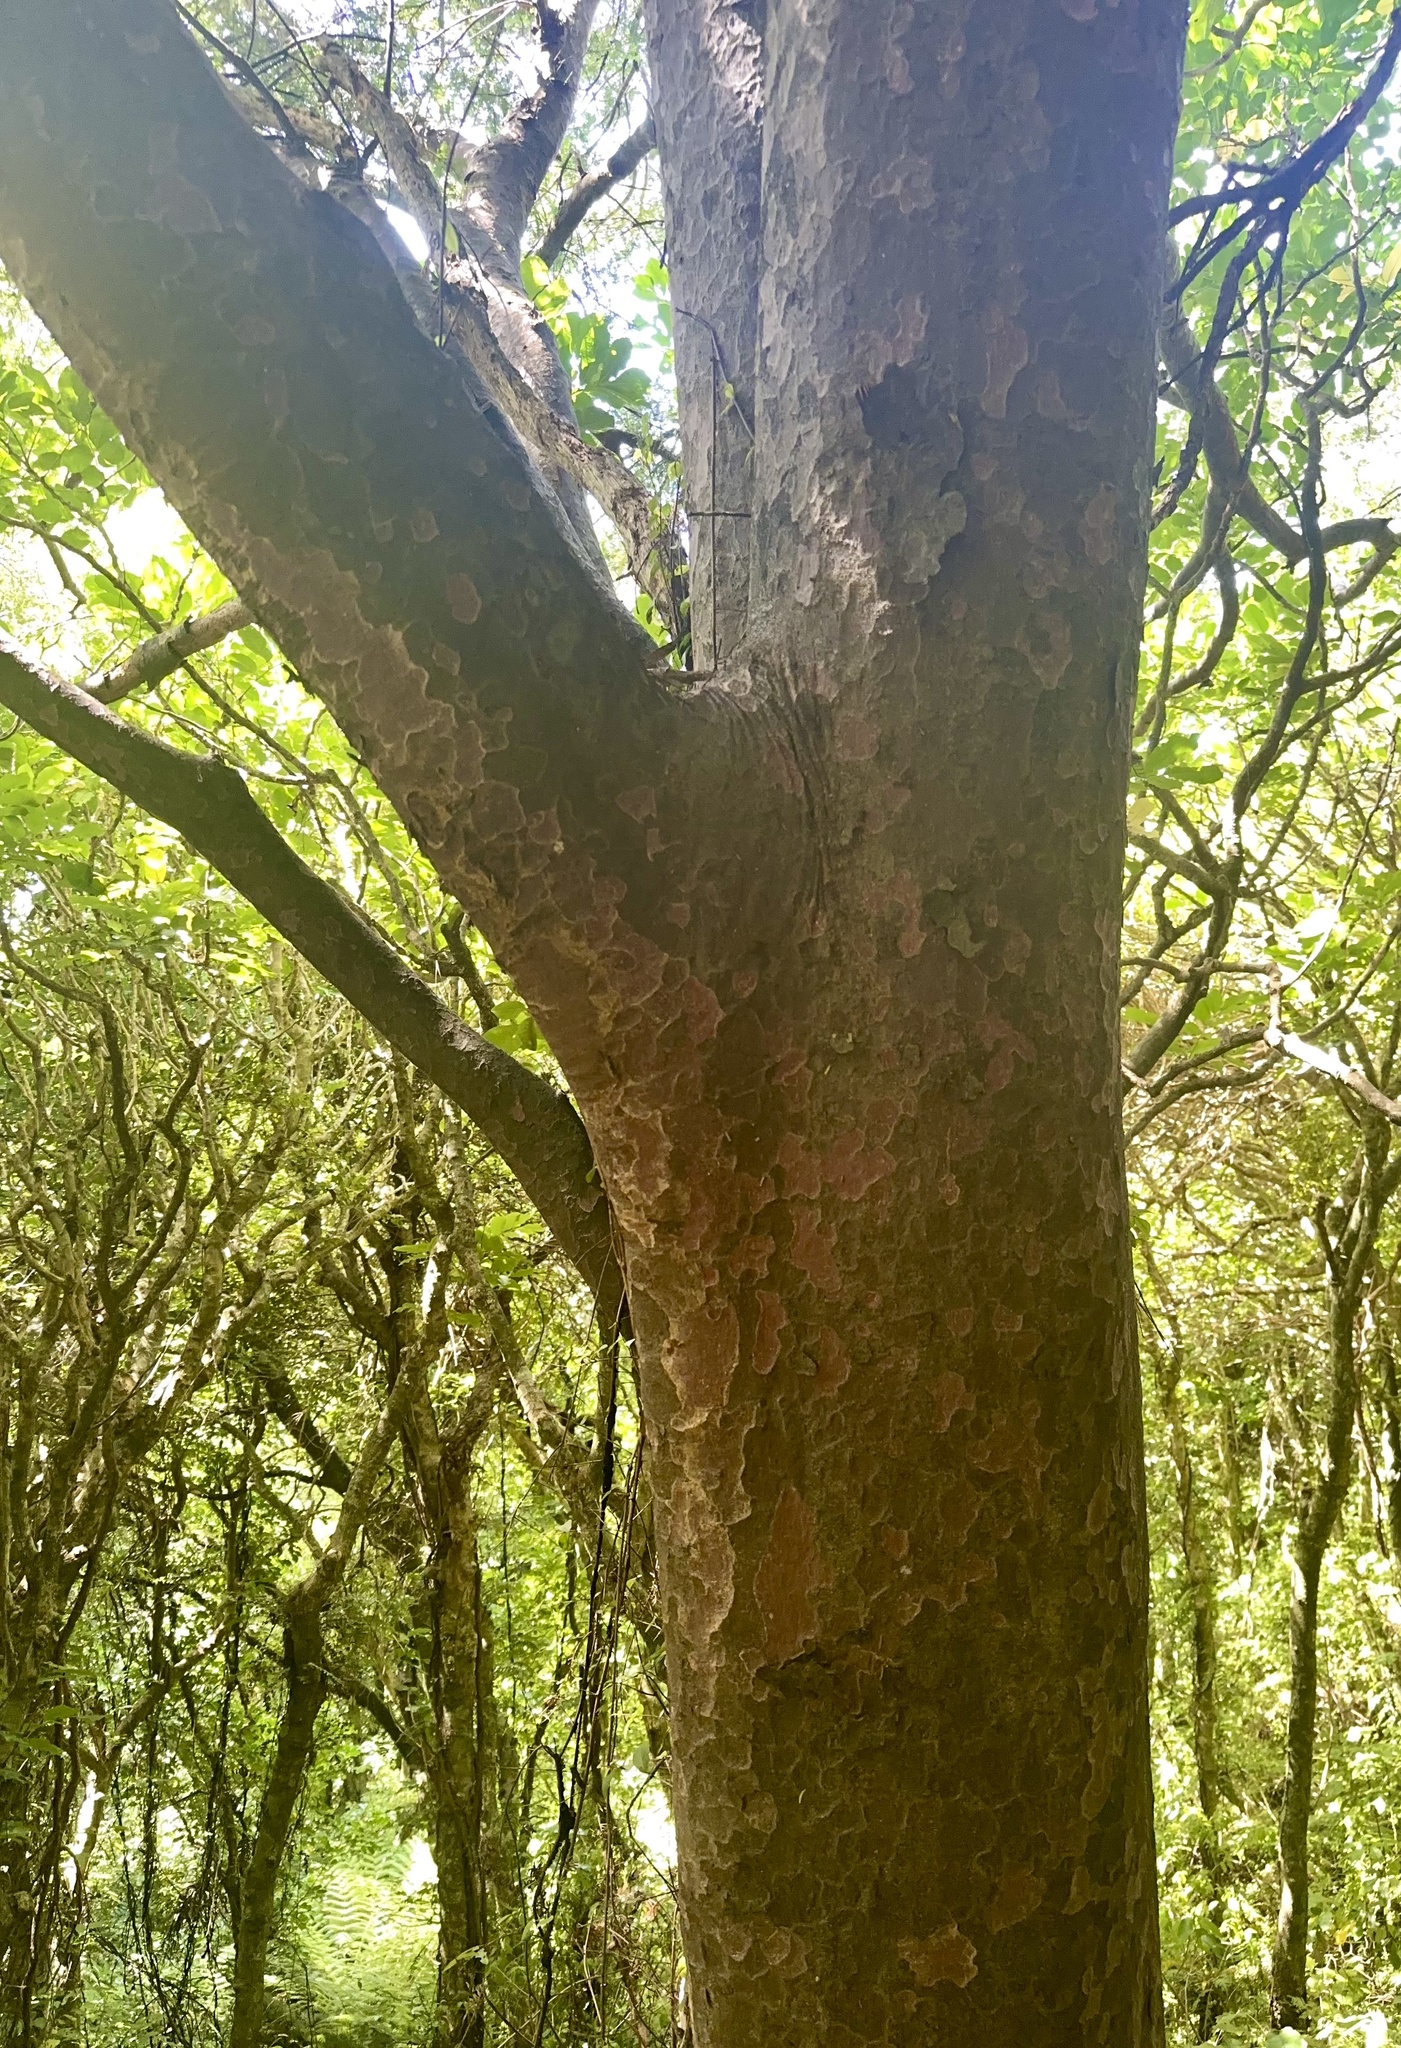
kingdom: Plantae
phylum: Tracheophyta
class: Pinopsida
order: Pinales
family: Podocarpaceae
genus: Prumnopitys
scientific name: Prumnopitys taxifolia
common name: Matai
